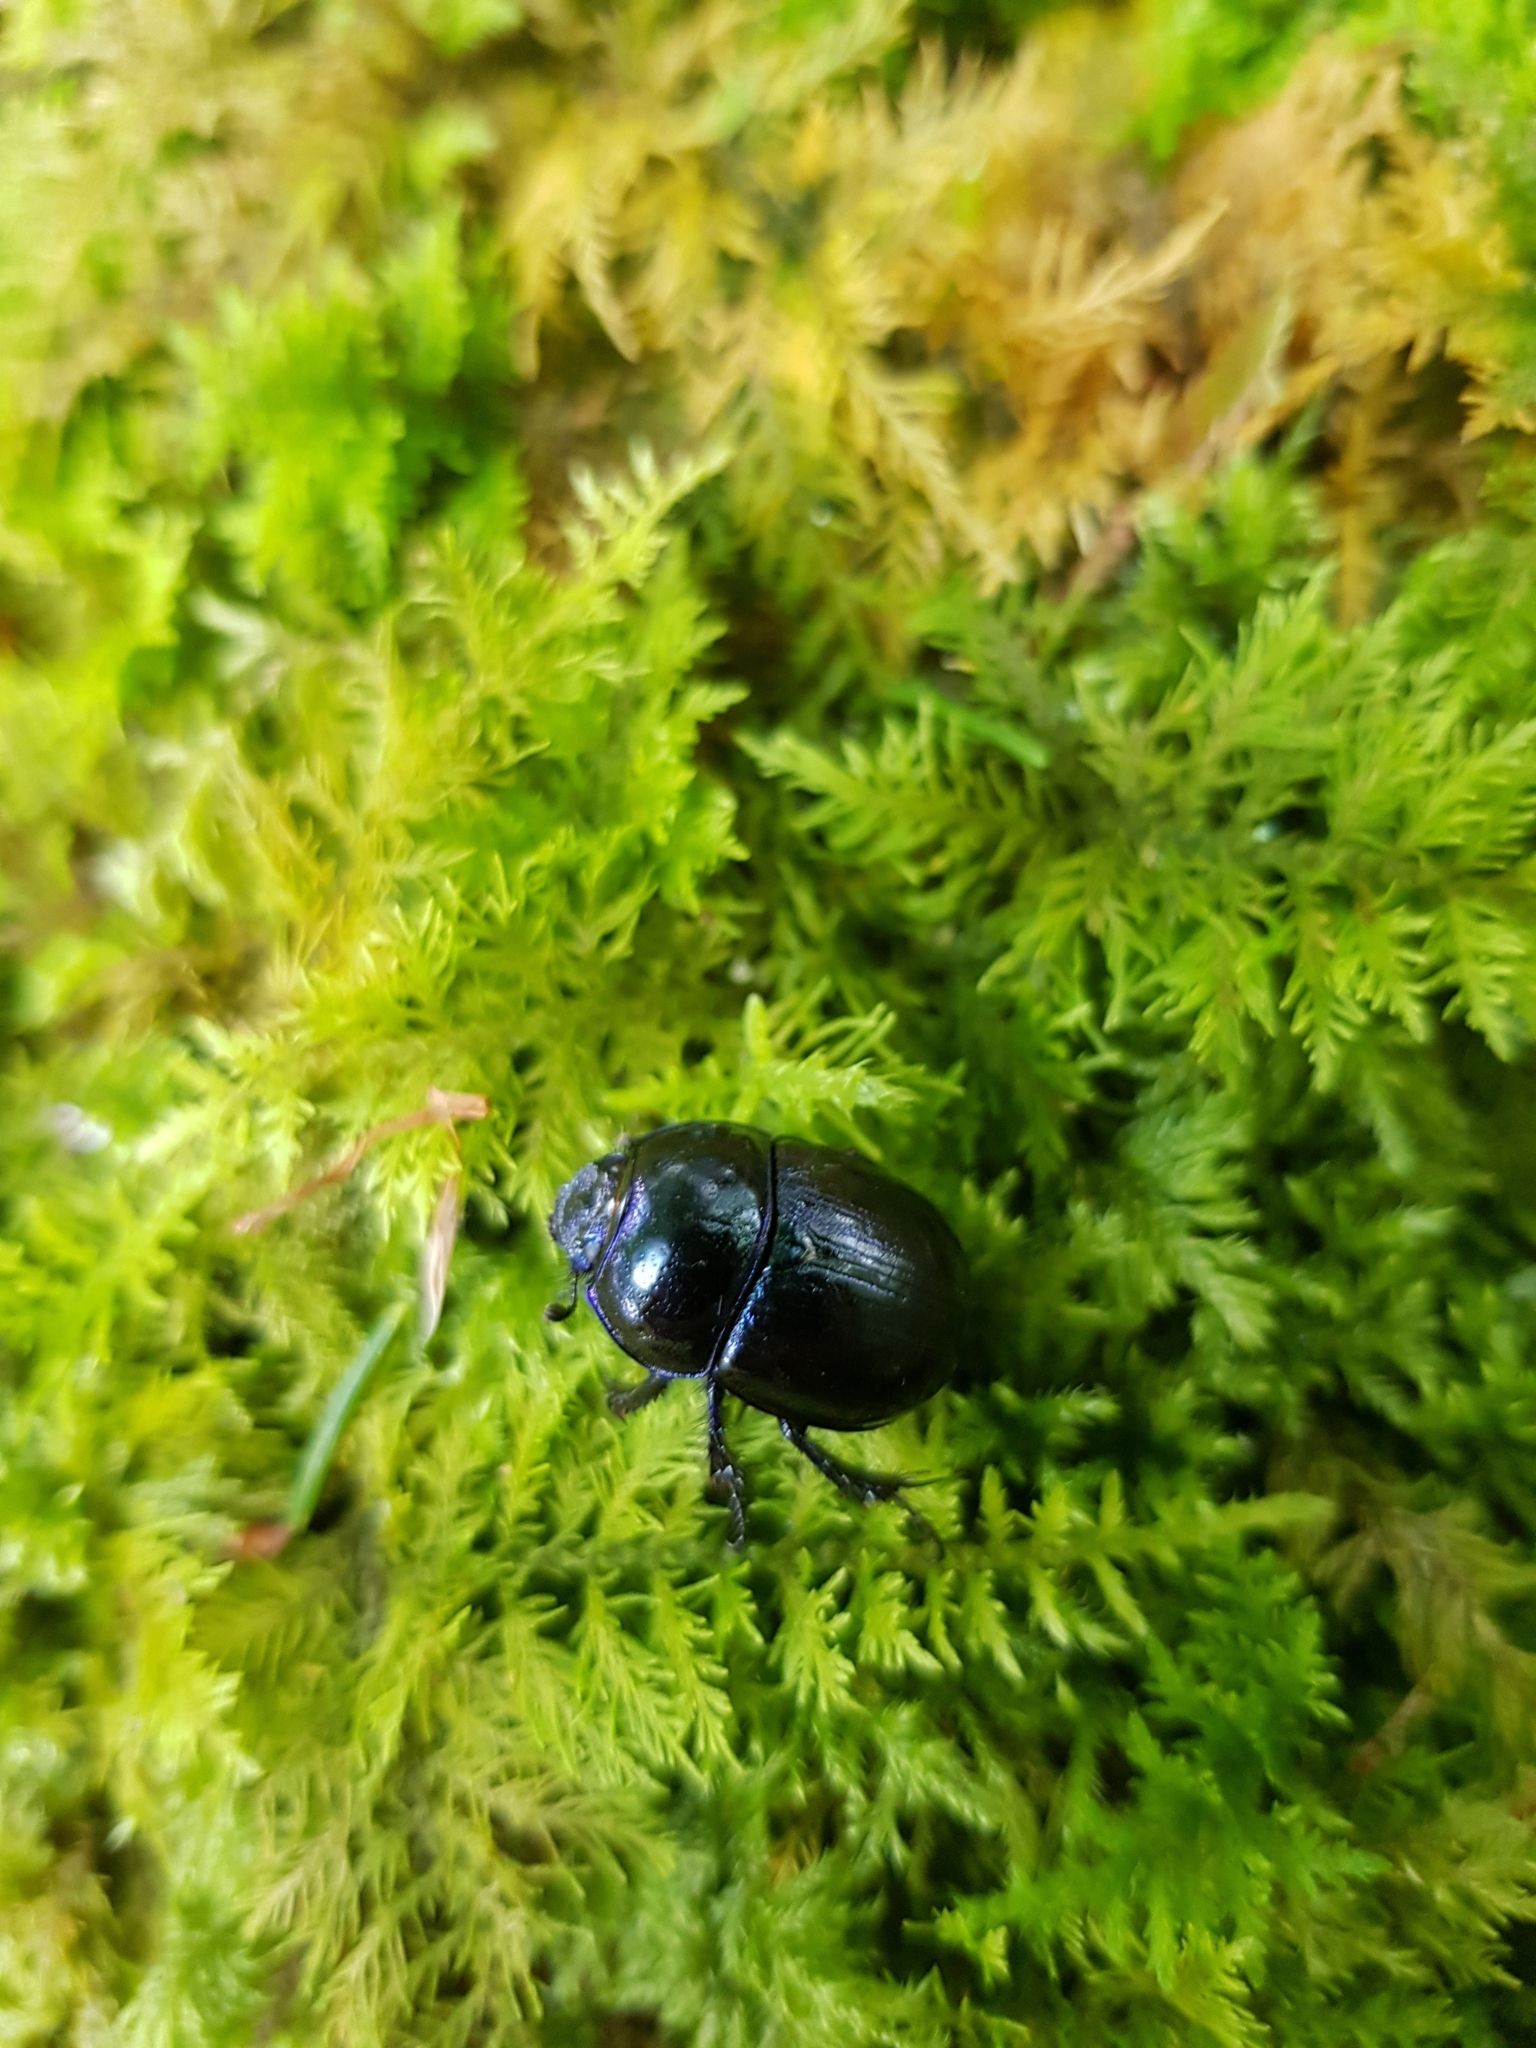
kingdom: Animalia
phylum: Arthropoda
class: Insecta
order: Coleoptera
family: Geotrupidae
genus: Anoplotrupes
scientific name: Anoplotrupes stercorosus
